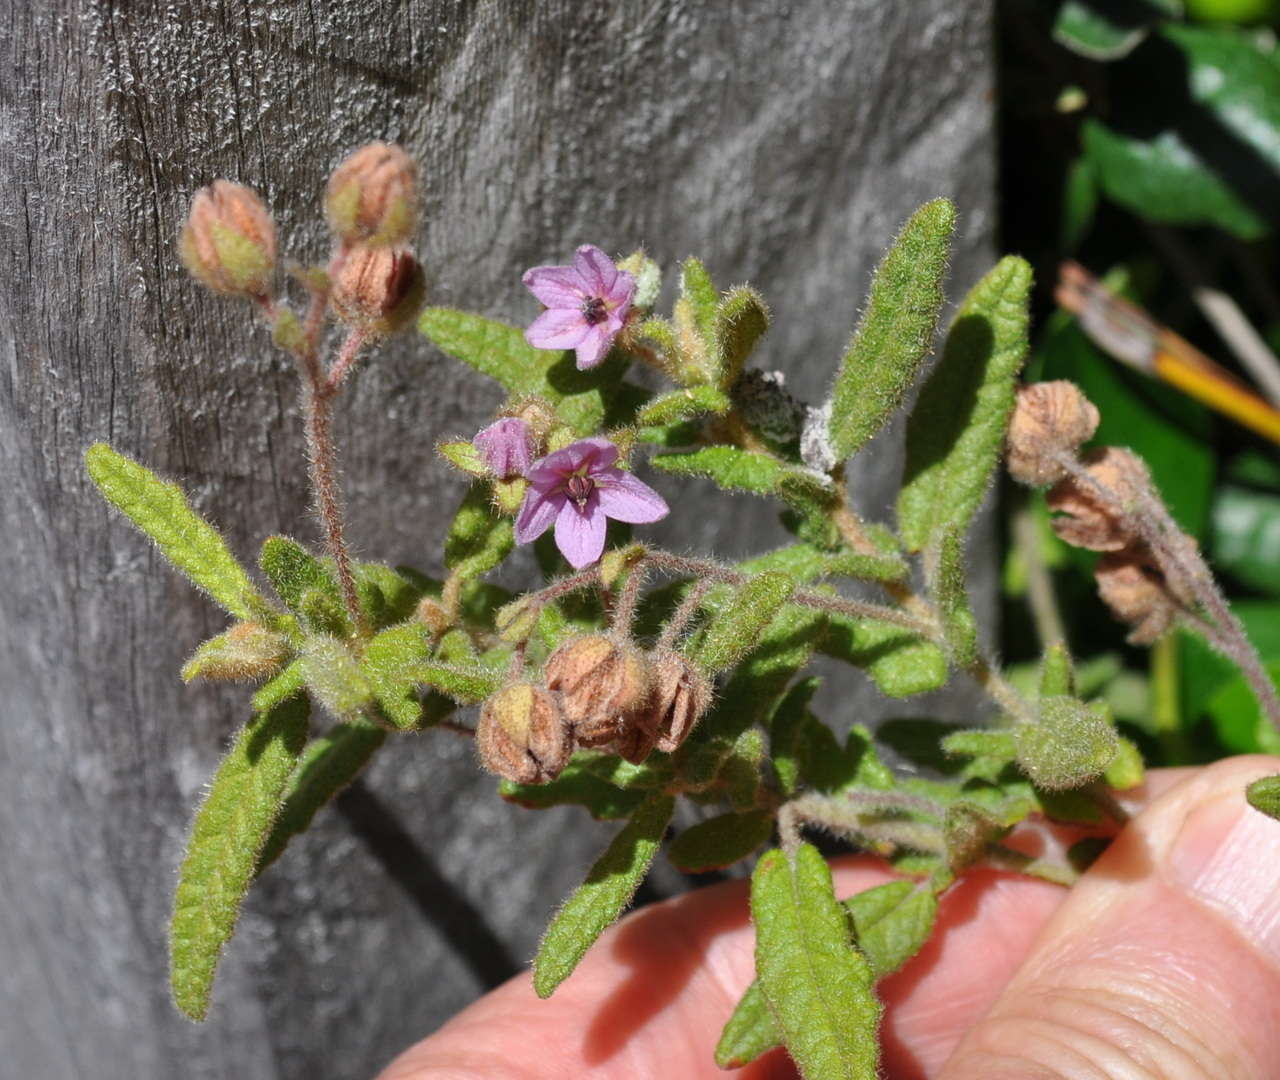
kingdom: Plantae
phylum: Tracheophyta
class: Magnoliopsida
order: Malvales
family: Malvaceae
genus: Thomasia
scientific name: Thomasia petalocalyx
